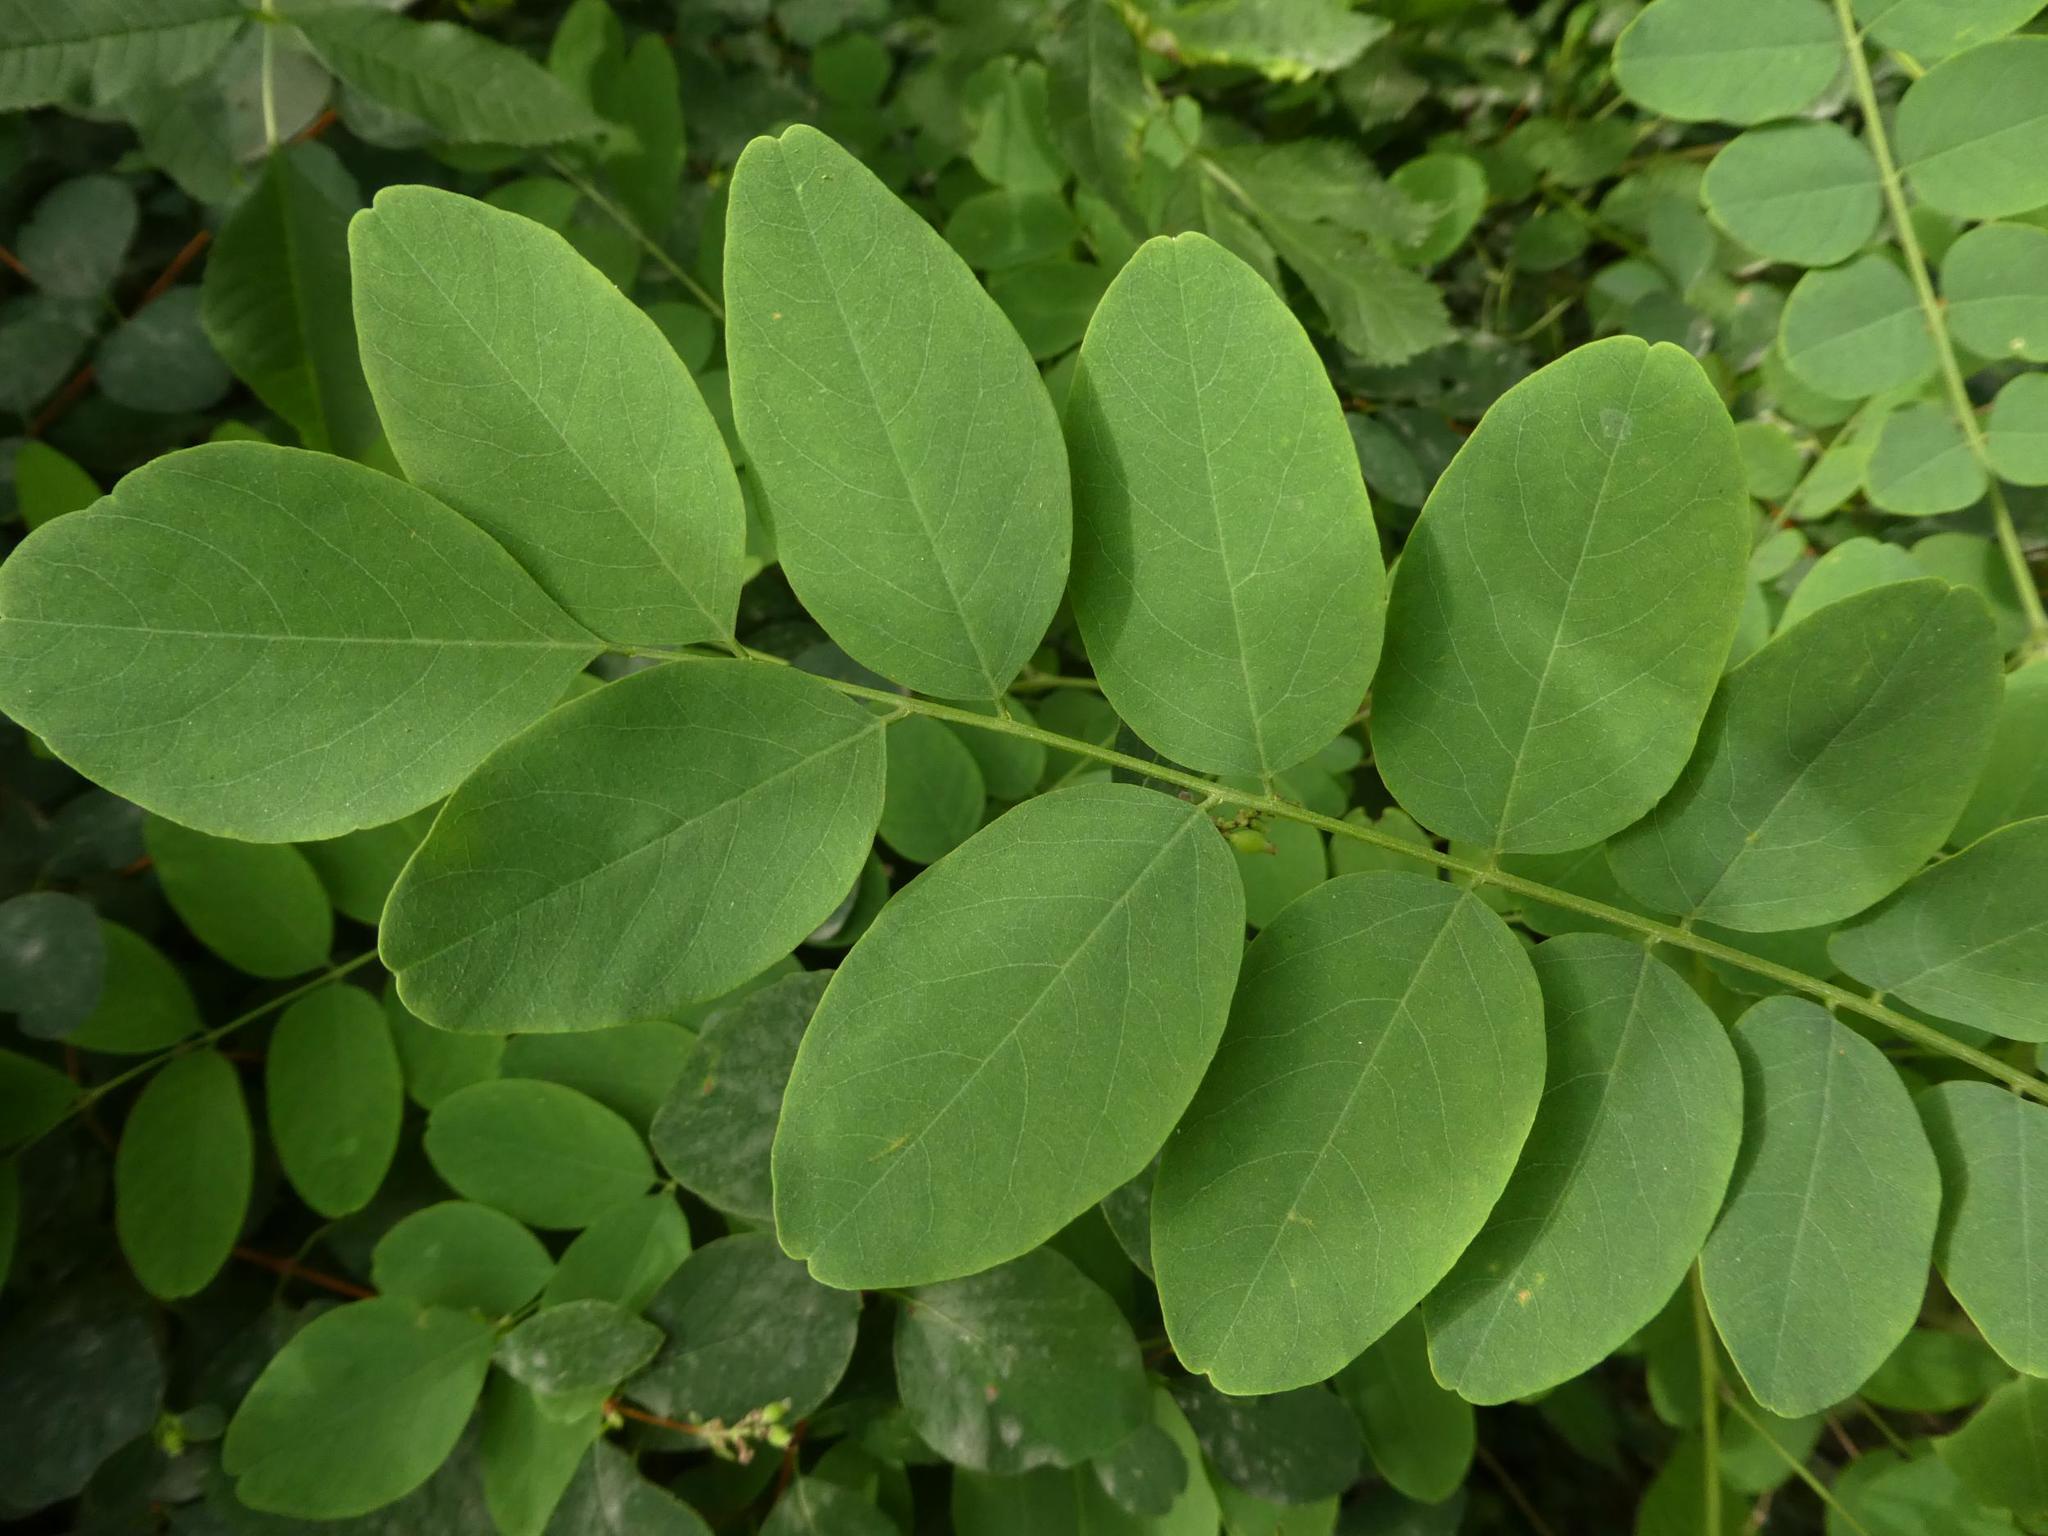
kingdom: Plantae
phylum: Tracheophyta
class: Magnoliopsida
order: Fabales
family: Fabaceae
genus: Robinia
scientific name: Robinia pseudoacacia
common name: Black locust
